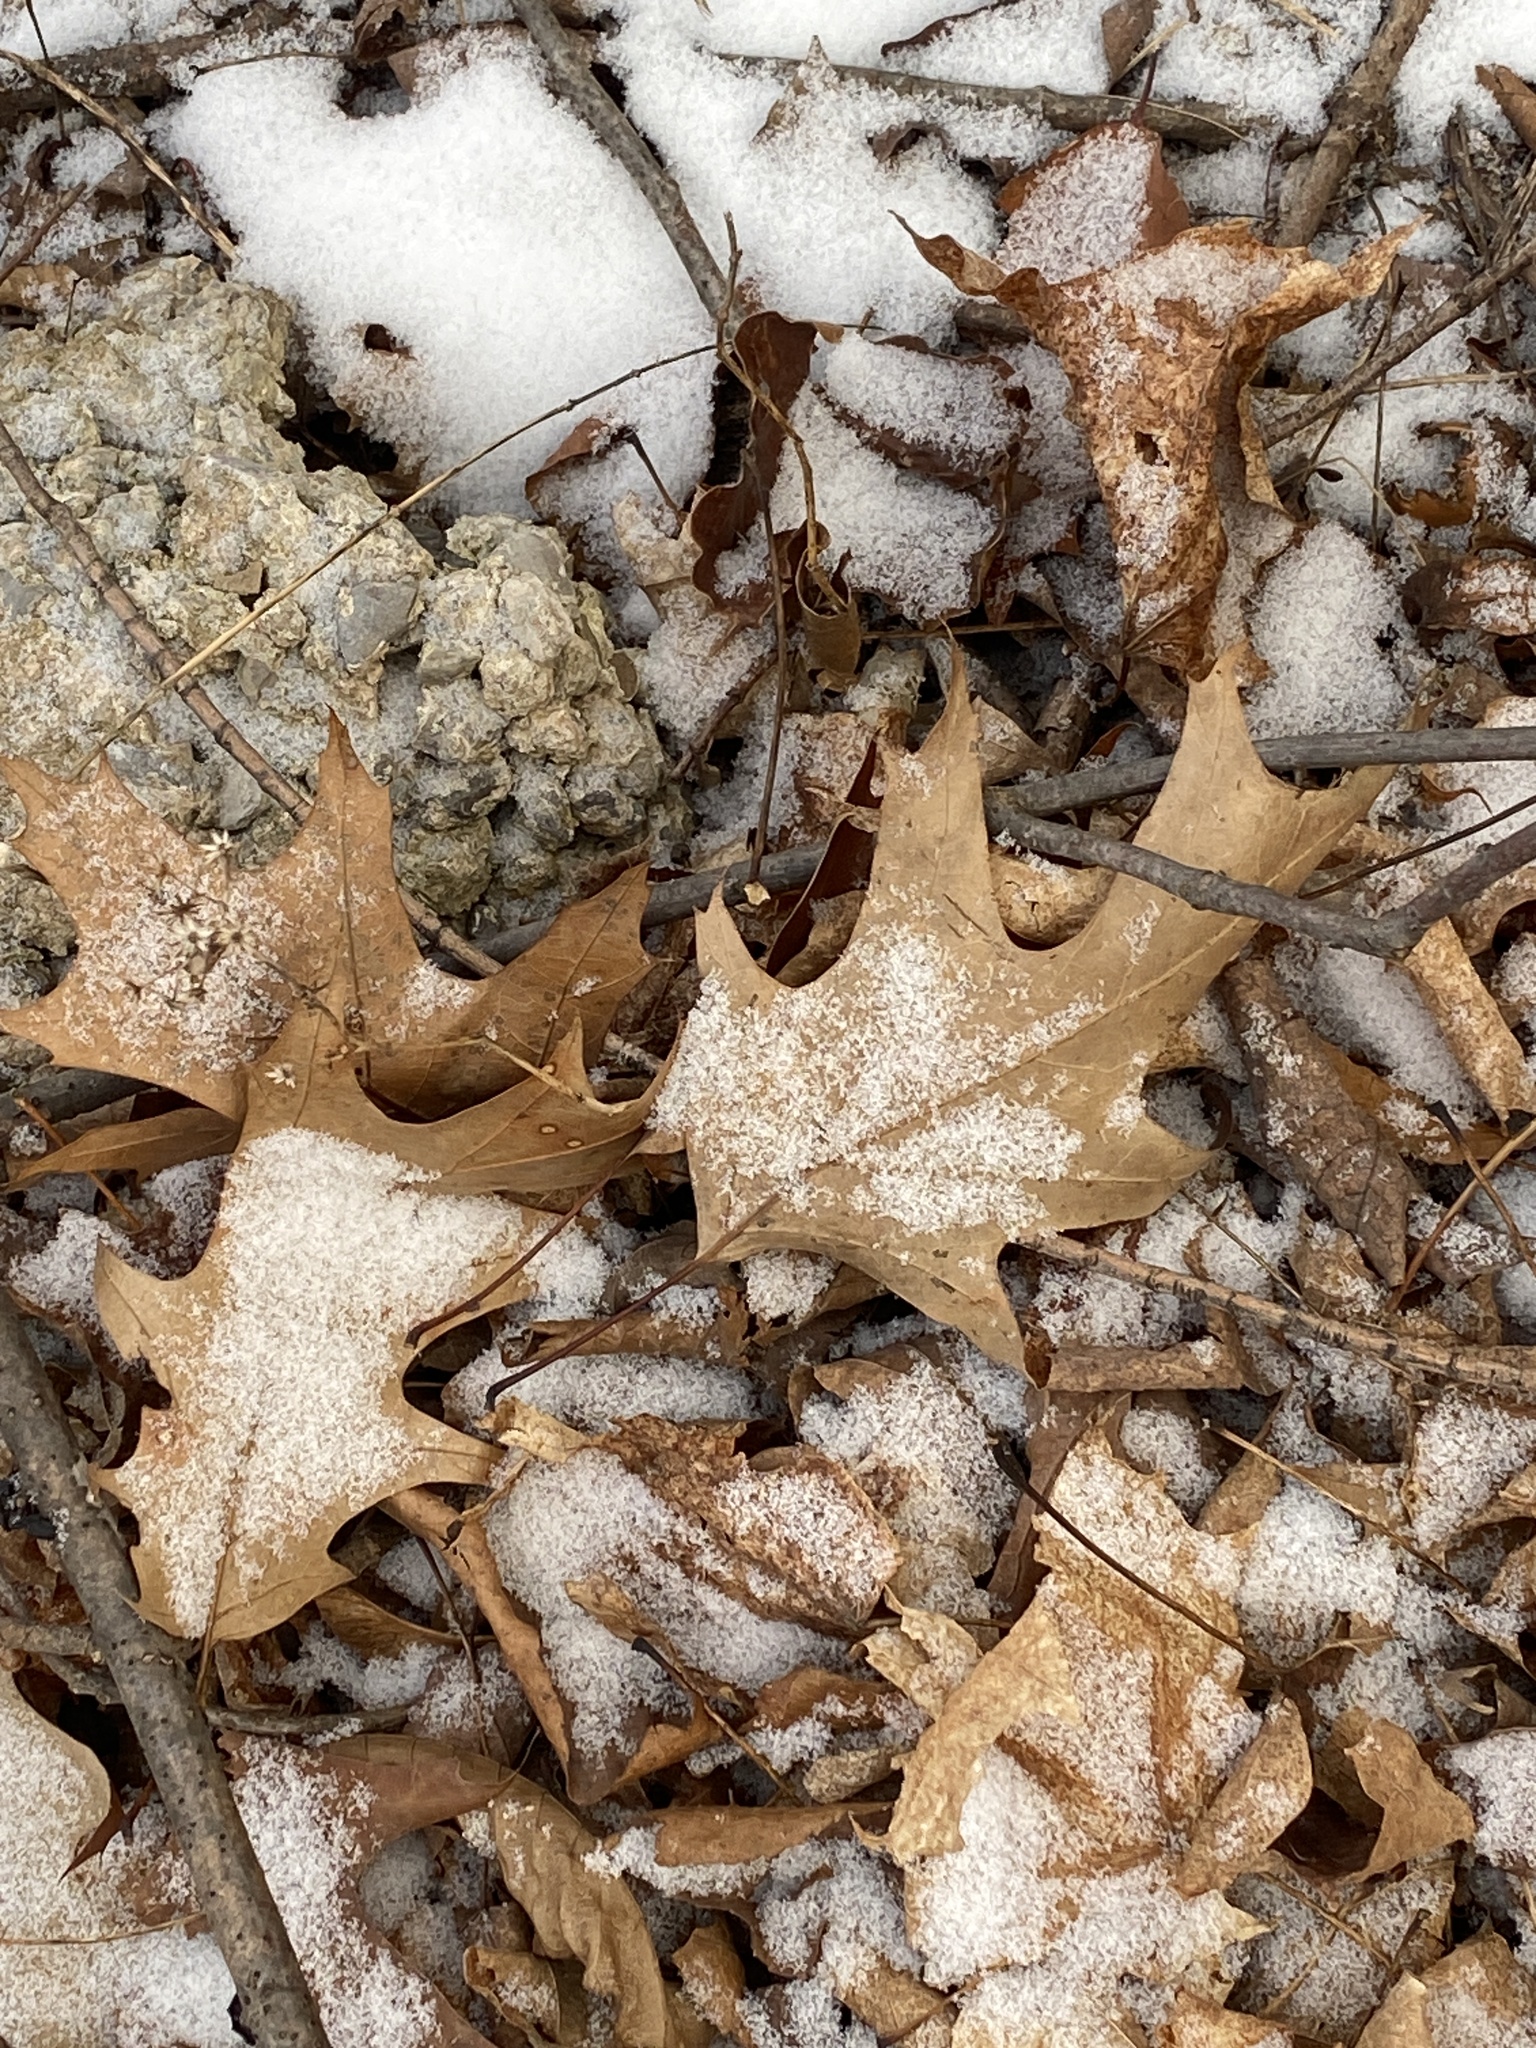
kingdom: Plantae
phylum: Tracheophyta
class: Magnoliopsida
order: Fagales
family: Fagaceae
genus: Quercus
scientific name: Quercus rubra
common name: Red oak
